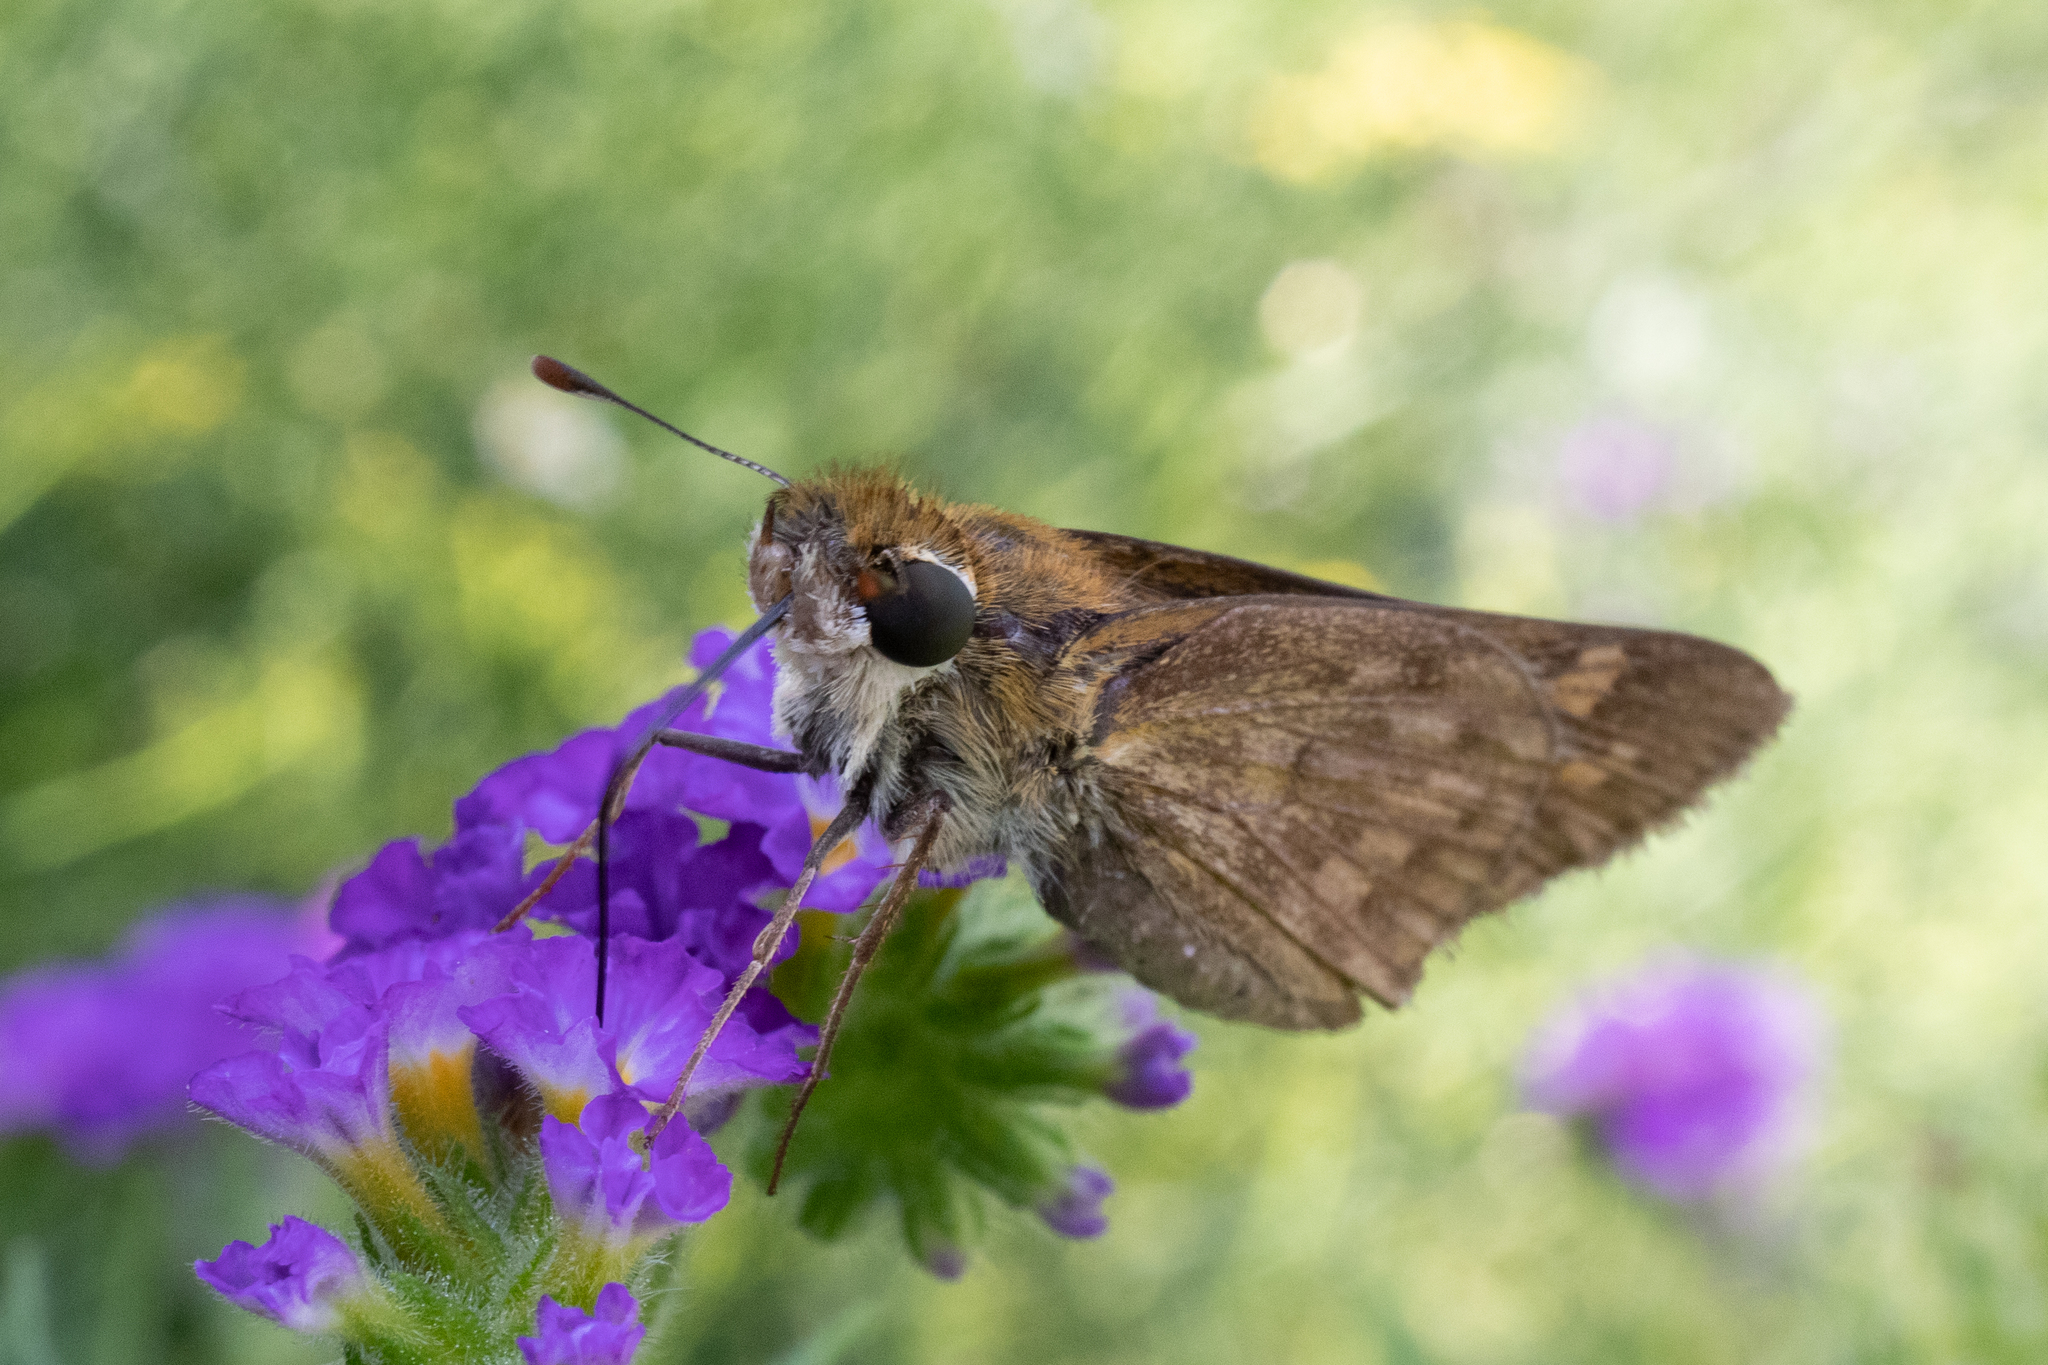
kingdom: Animalia
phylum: Arthropoda
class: Insecta
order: Lepidoptera
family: Hesperiidae
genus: Atalopedes
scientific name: Atalopedes
